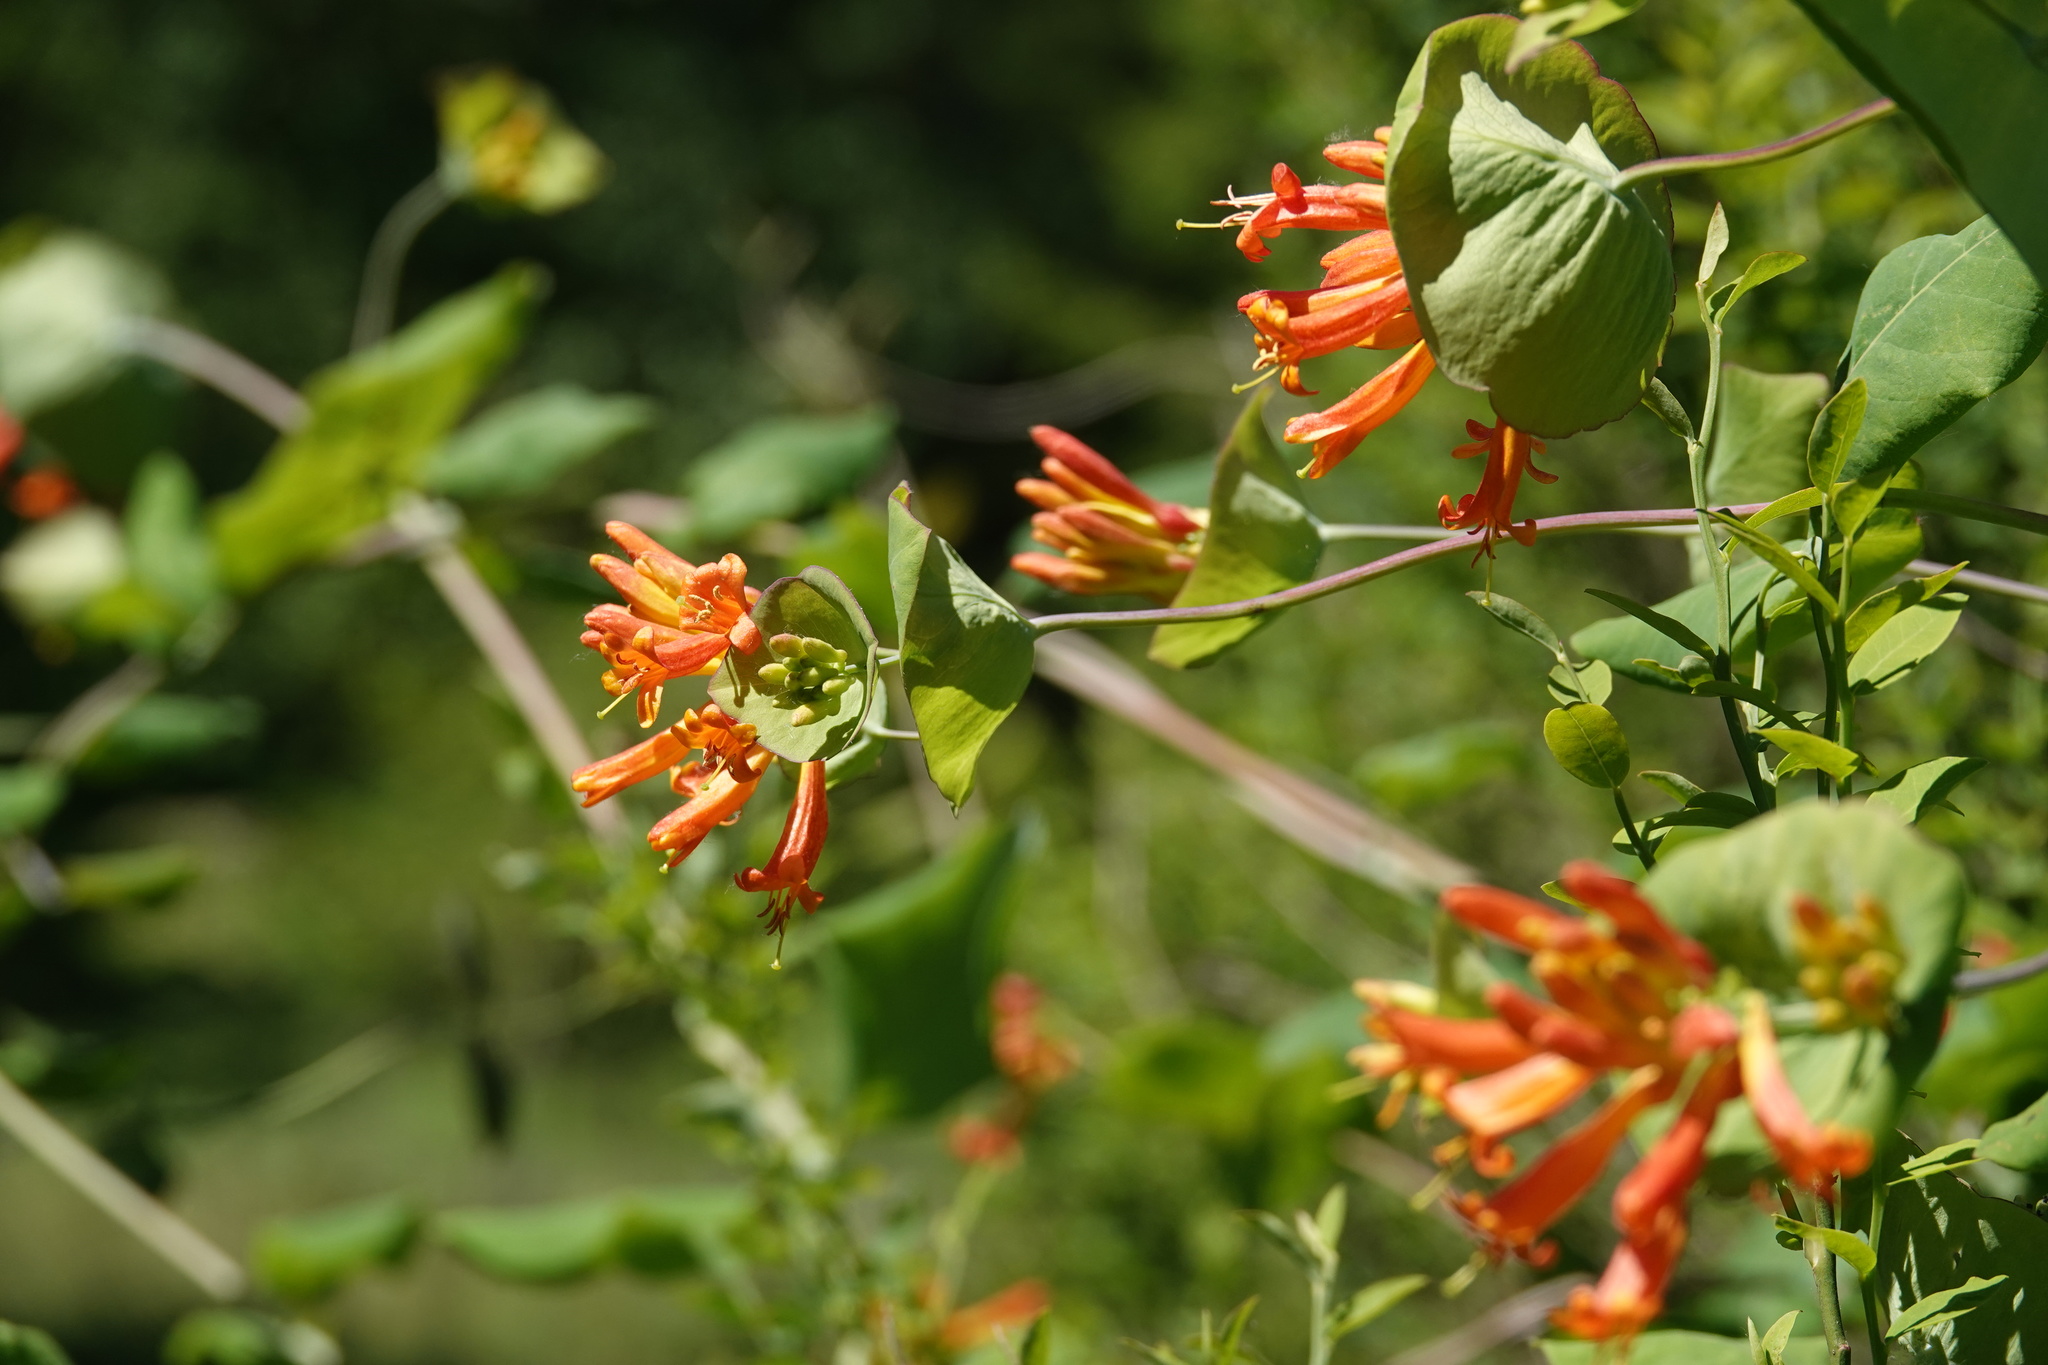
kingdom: Plantae
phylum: Tracheophyta
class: Magnoliopsida
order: Dipsacales
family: Caprifoliaceae
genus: Lonicera
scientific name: Lonicera ciliosa
